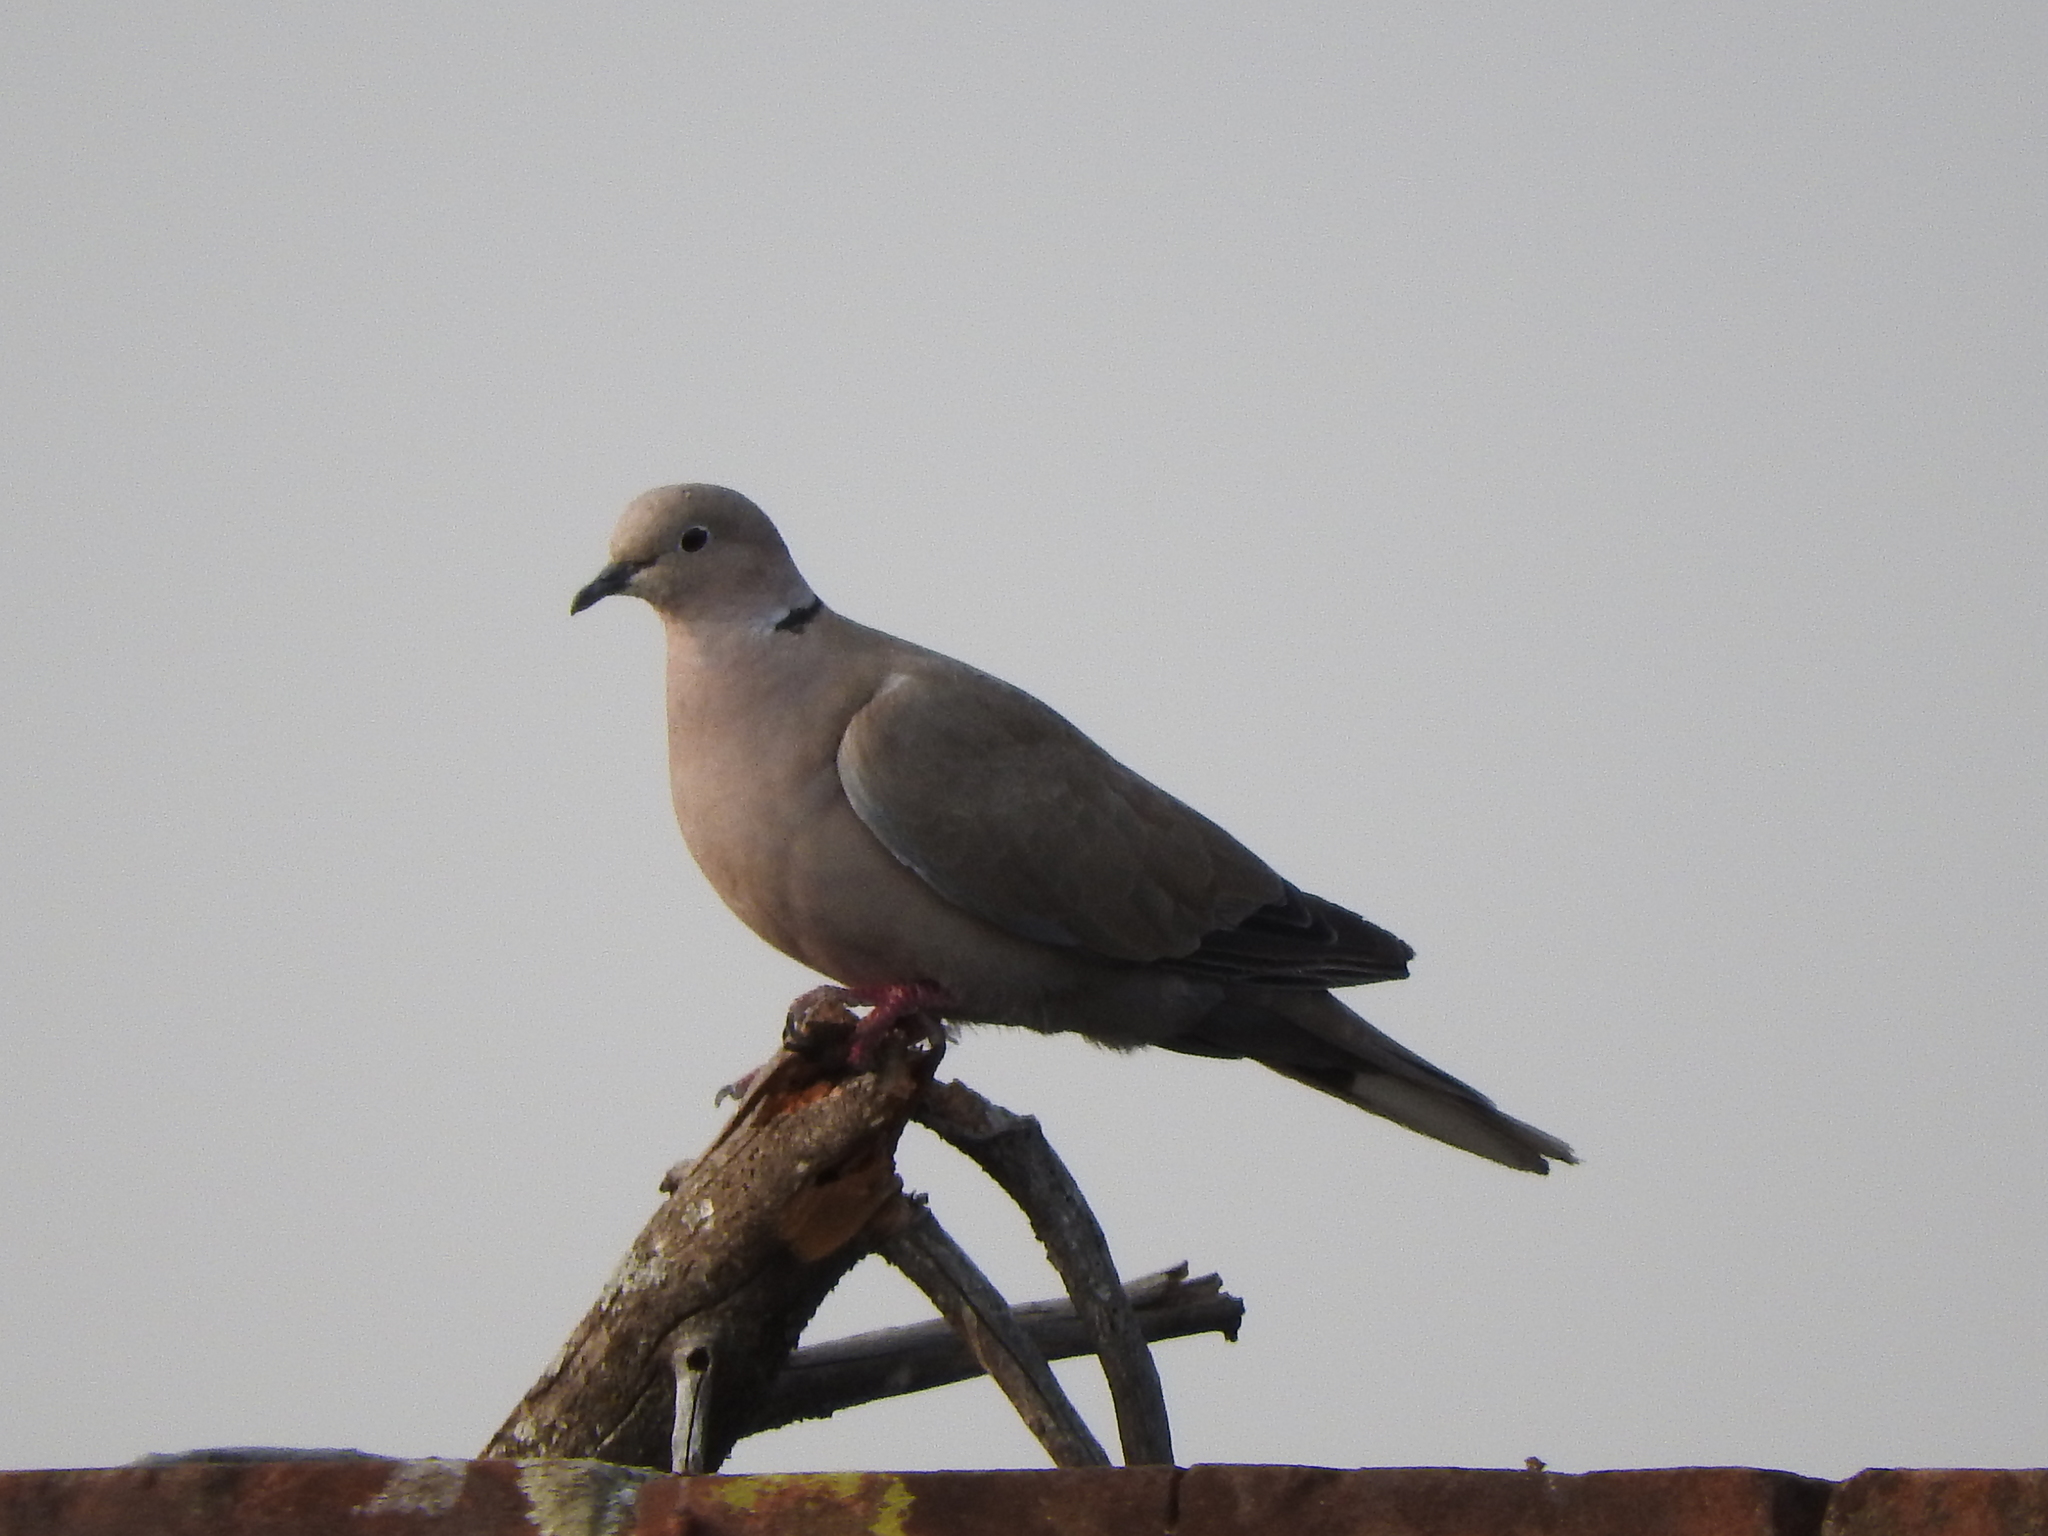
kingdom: Animalia
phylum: Chordata
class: Aves
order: Columbiformes
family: Columbidae
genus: Streptopelia
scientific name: Streptopelia decaocto
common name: Eurasian collared dove
